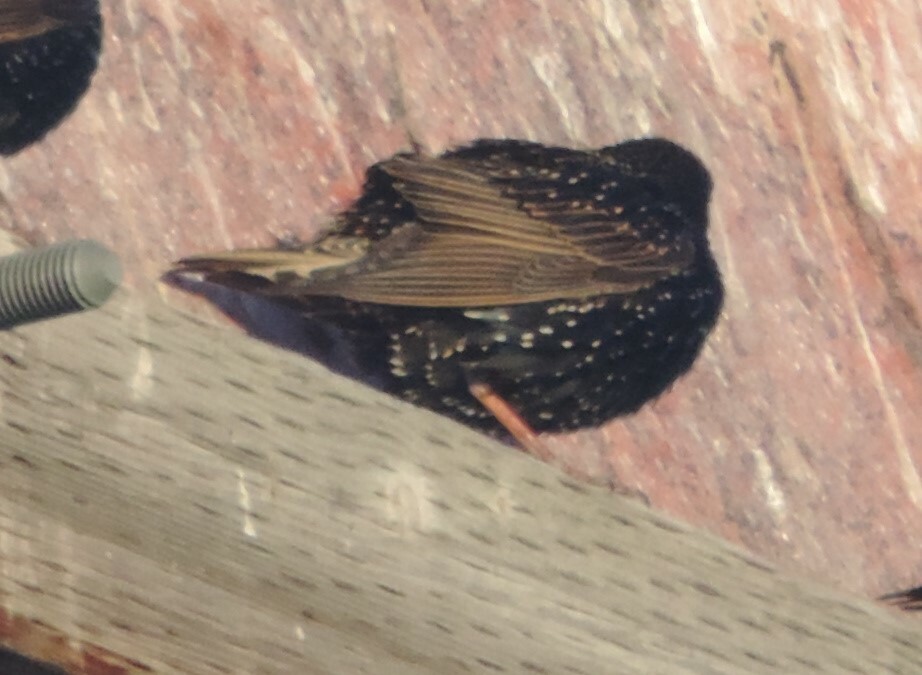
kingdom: Animalia
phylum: Chordata
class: Aves
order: Passeriformes
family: Sturnidae
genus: Sturnus
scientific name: Sturnus vulgaris
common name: Common starling
